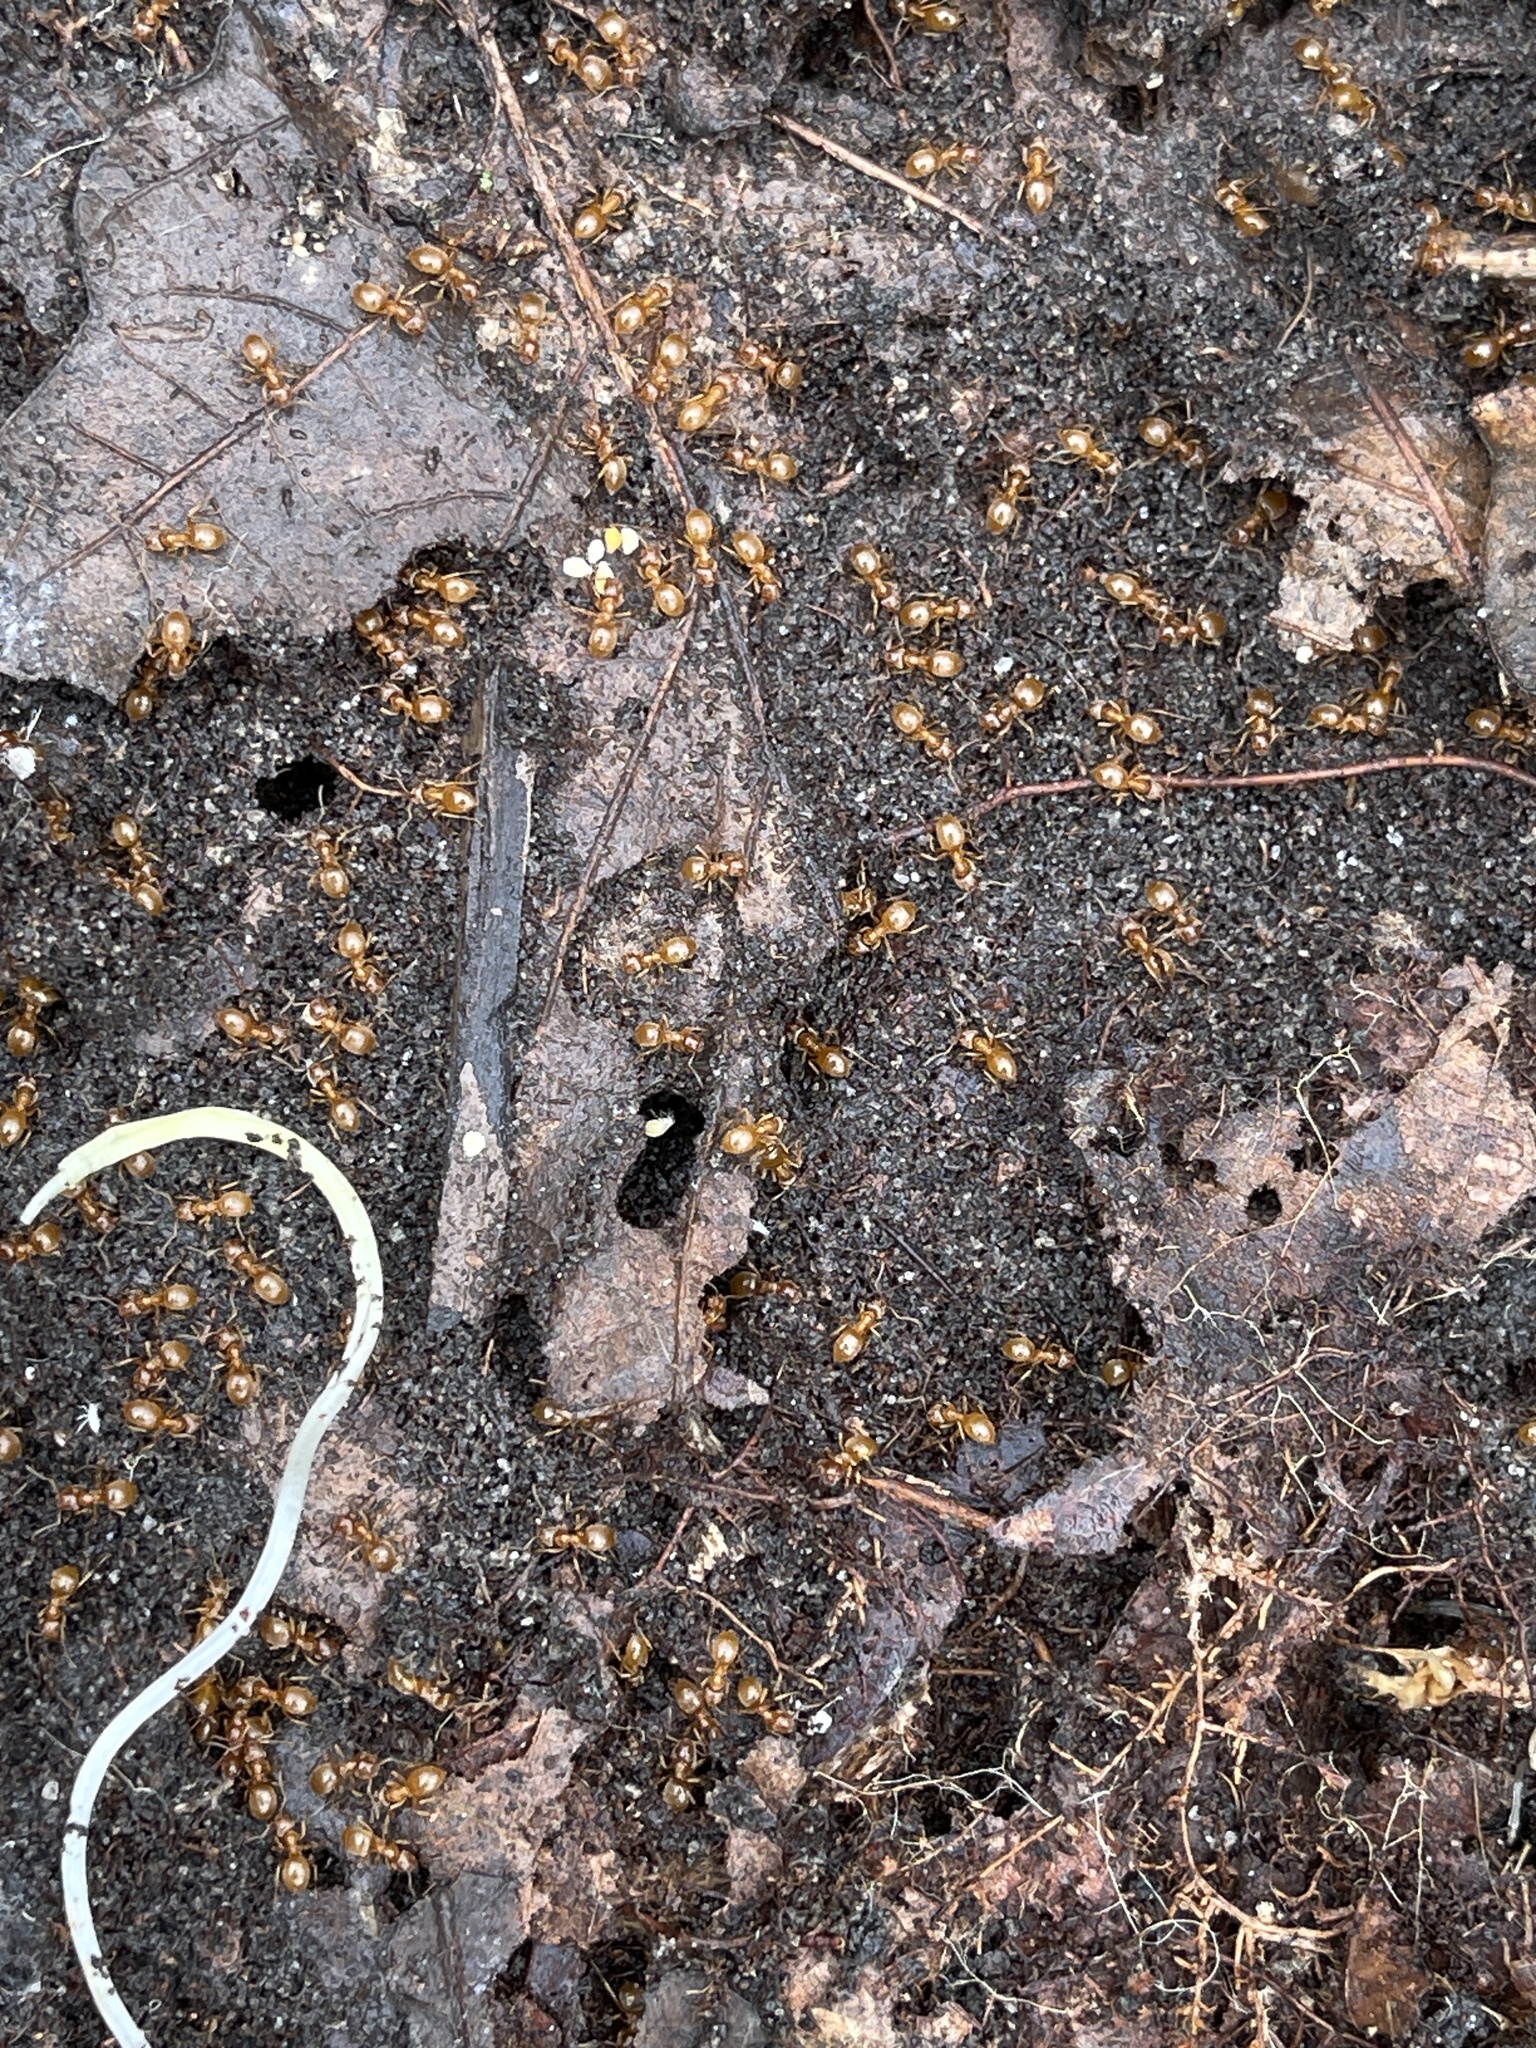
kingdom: Animalia
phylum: Arthropoda
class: Insecta
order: Hymenoptera
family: Formicidae
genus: Lasius
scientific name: Lasius aphidicola
